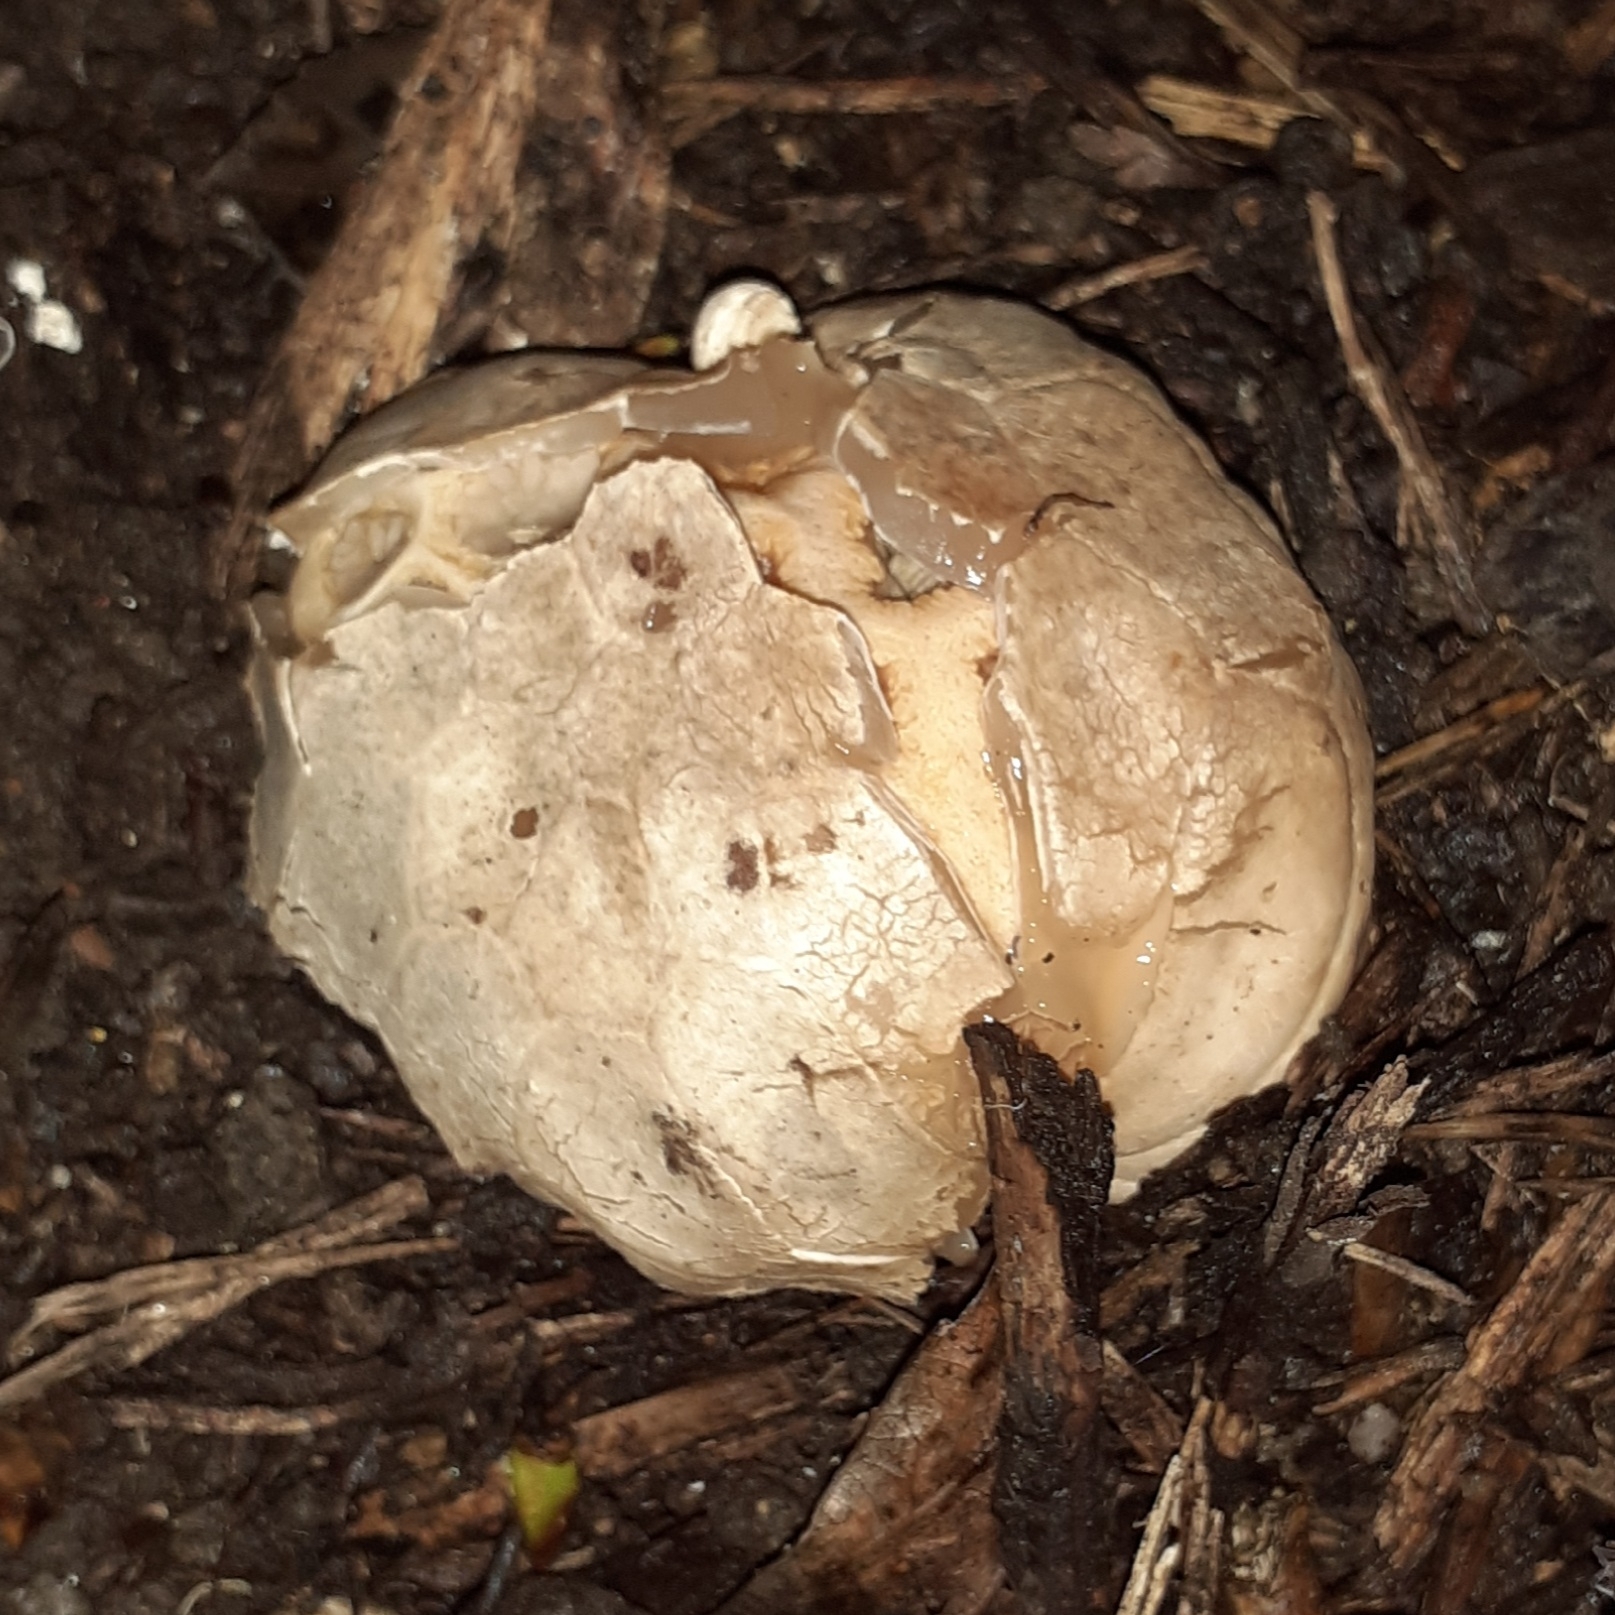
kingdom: Fungi
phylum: Basidiomycota
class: Agaricomycetes
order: Phallales
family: Phallaceae
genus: Clathrus
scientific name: Clathrus ruber
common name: Red cage
